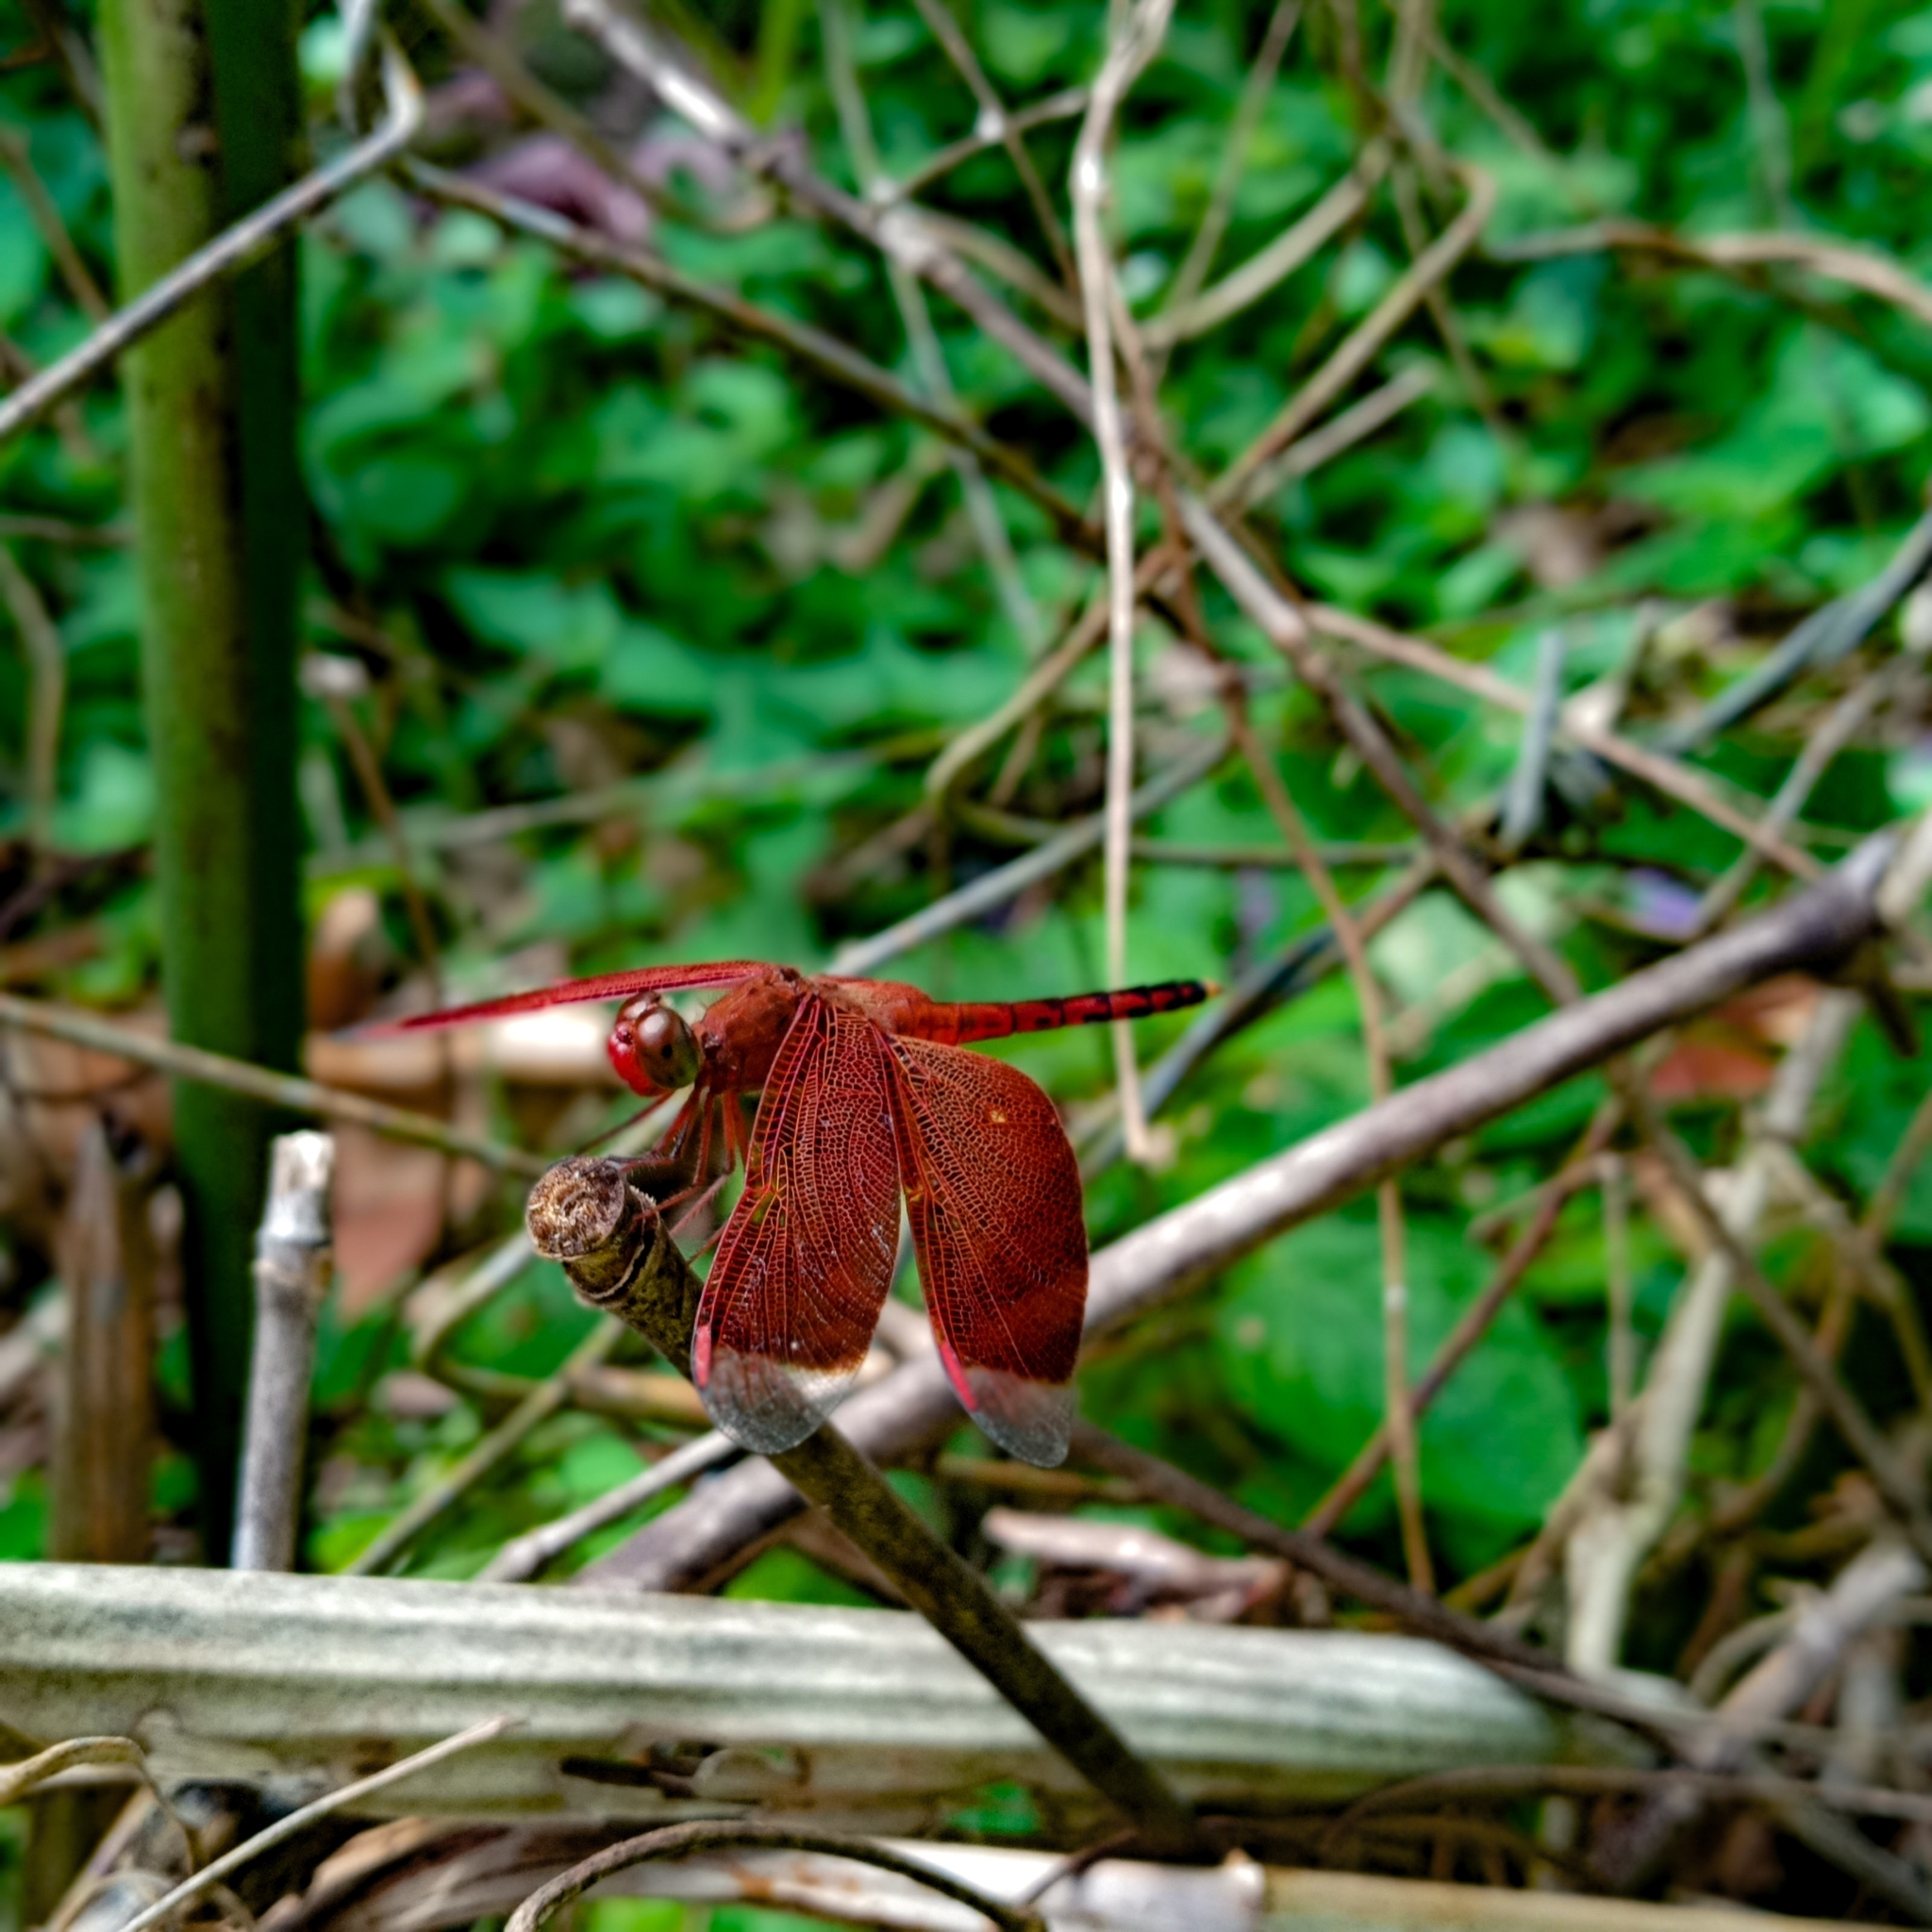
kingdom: Animalia
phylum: Arthropoda
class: Insecta
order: Odonata
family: Libellulidae
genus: Neurothemis
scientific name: Neurothemis terminata
